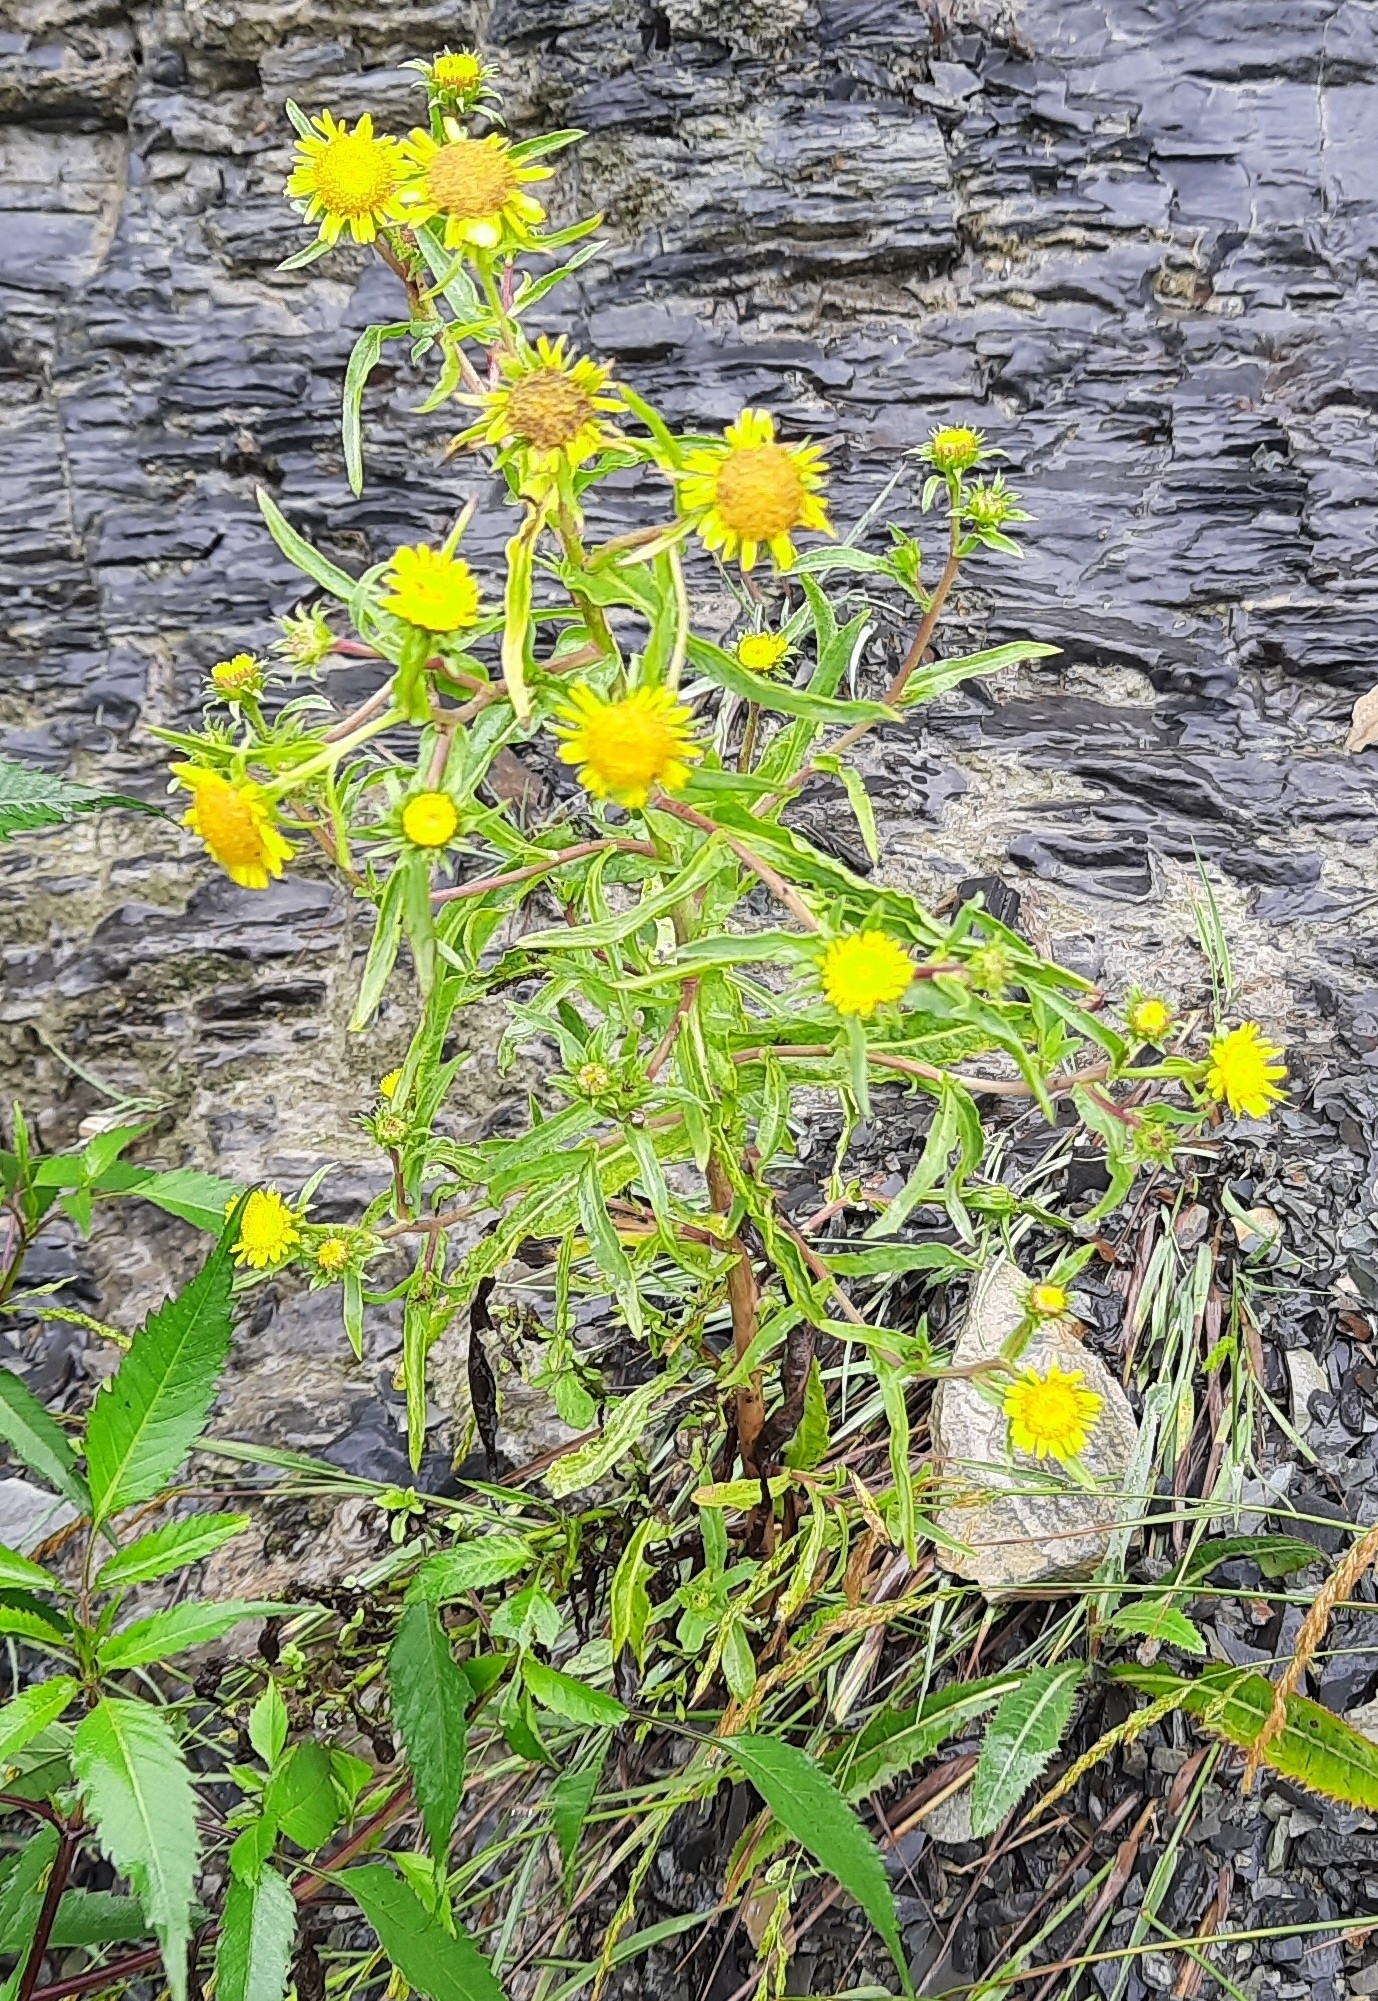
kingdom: Plantae
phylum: Tracheophyta
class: Magnoliopsida
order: Asterales
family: Asteraceae
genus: Pentanema
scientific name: Pentanema britannicum
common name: British elecampane
